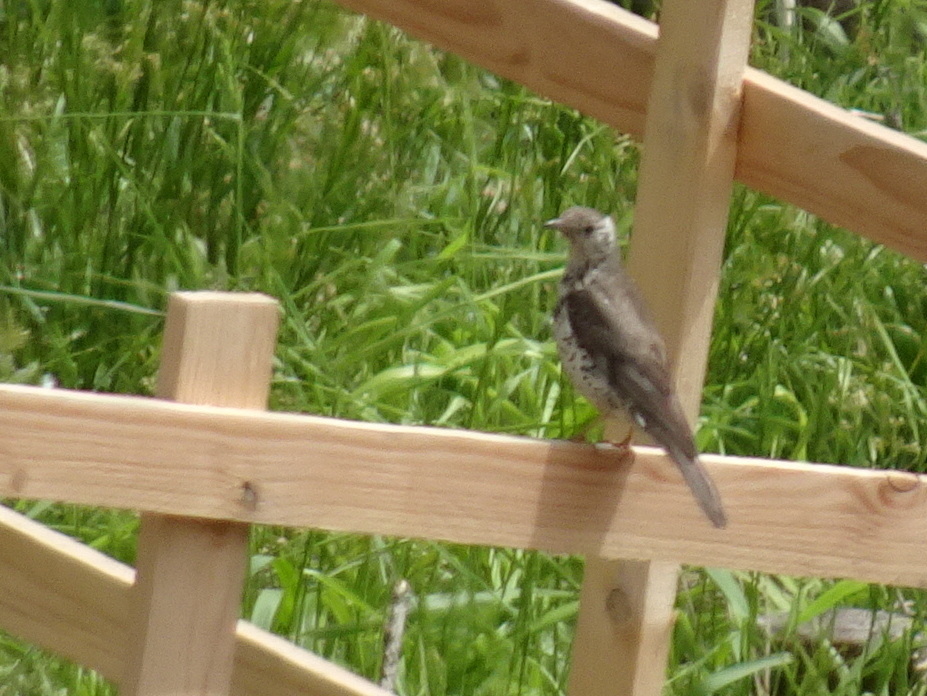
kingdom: Animalia
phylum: Chordata
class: Aves
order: Passeriformes
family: Turdidae
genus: Turdus
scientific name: Turdus viscivorus
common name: Mistle thrush
